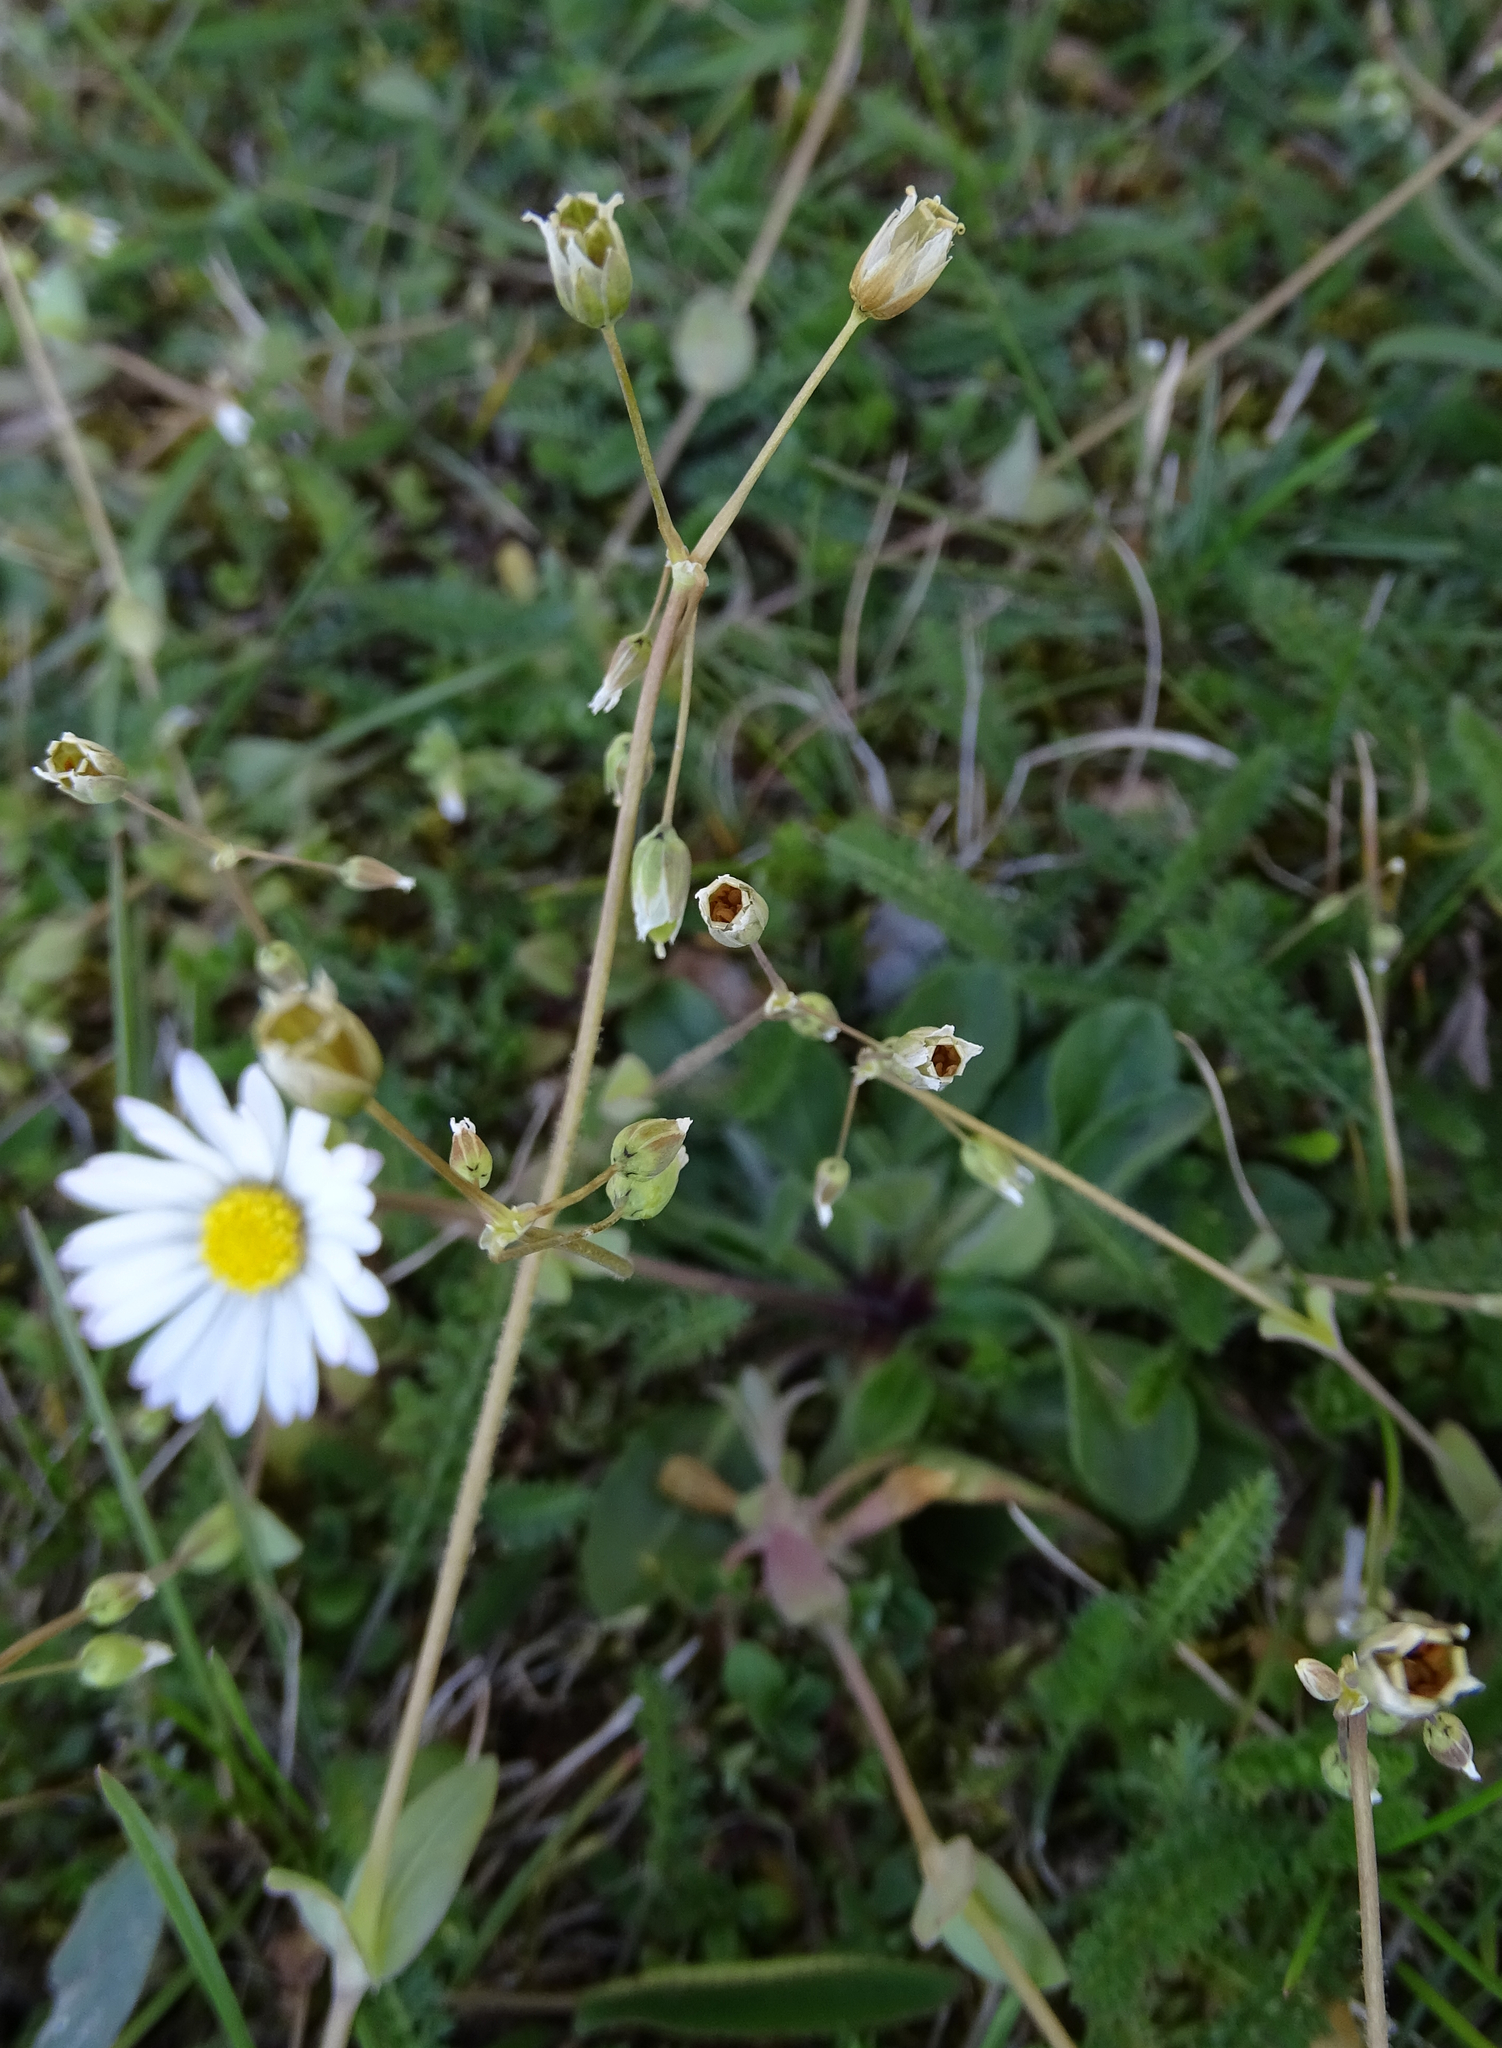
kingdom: Plantae
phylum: Tracheophyta
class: Magnoliopsida
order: Caryophyllales
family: Caryophyllaceae
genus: Holosteum
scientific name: Holosteum umbellatum
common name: Jagged chickweed
